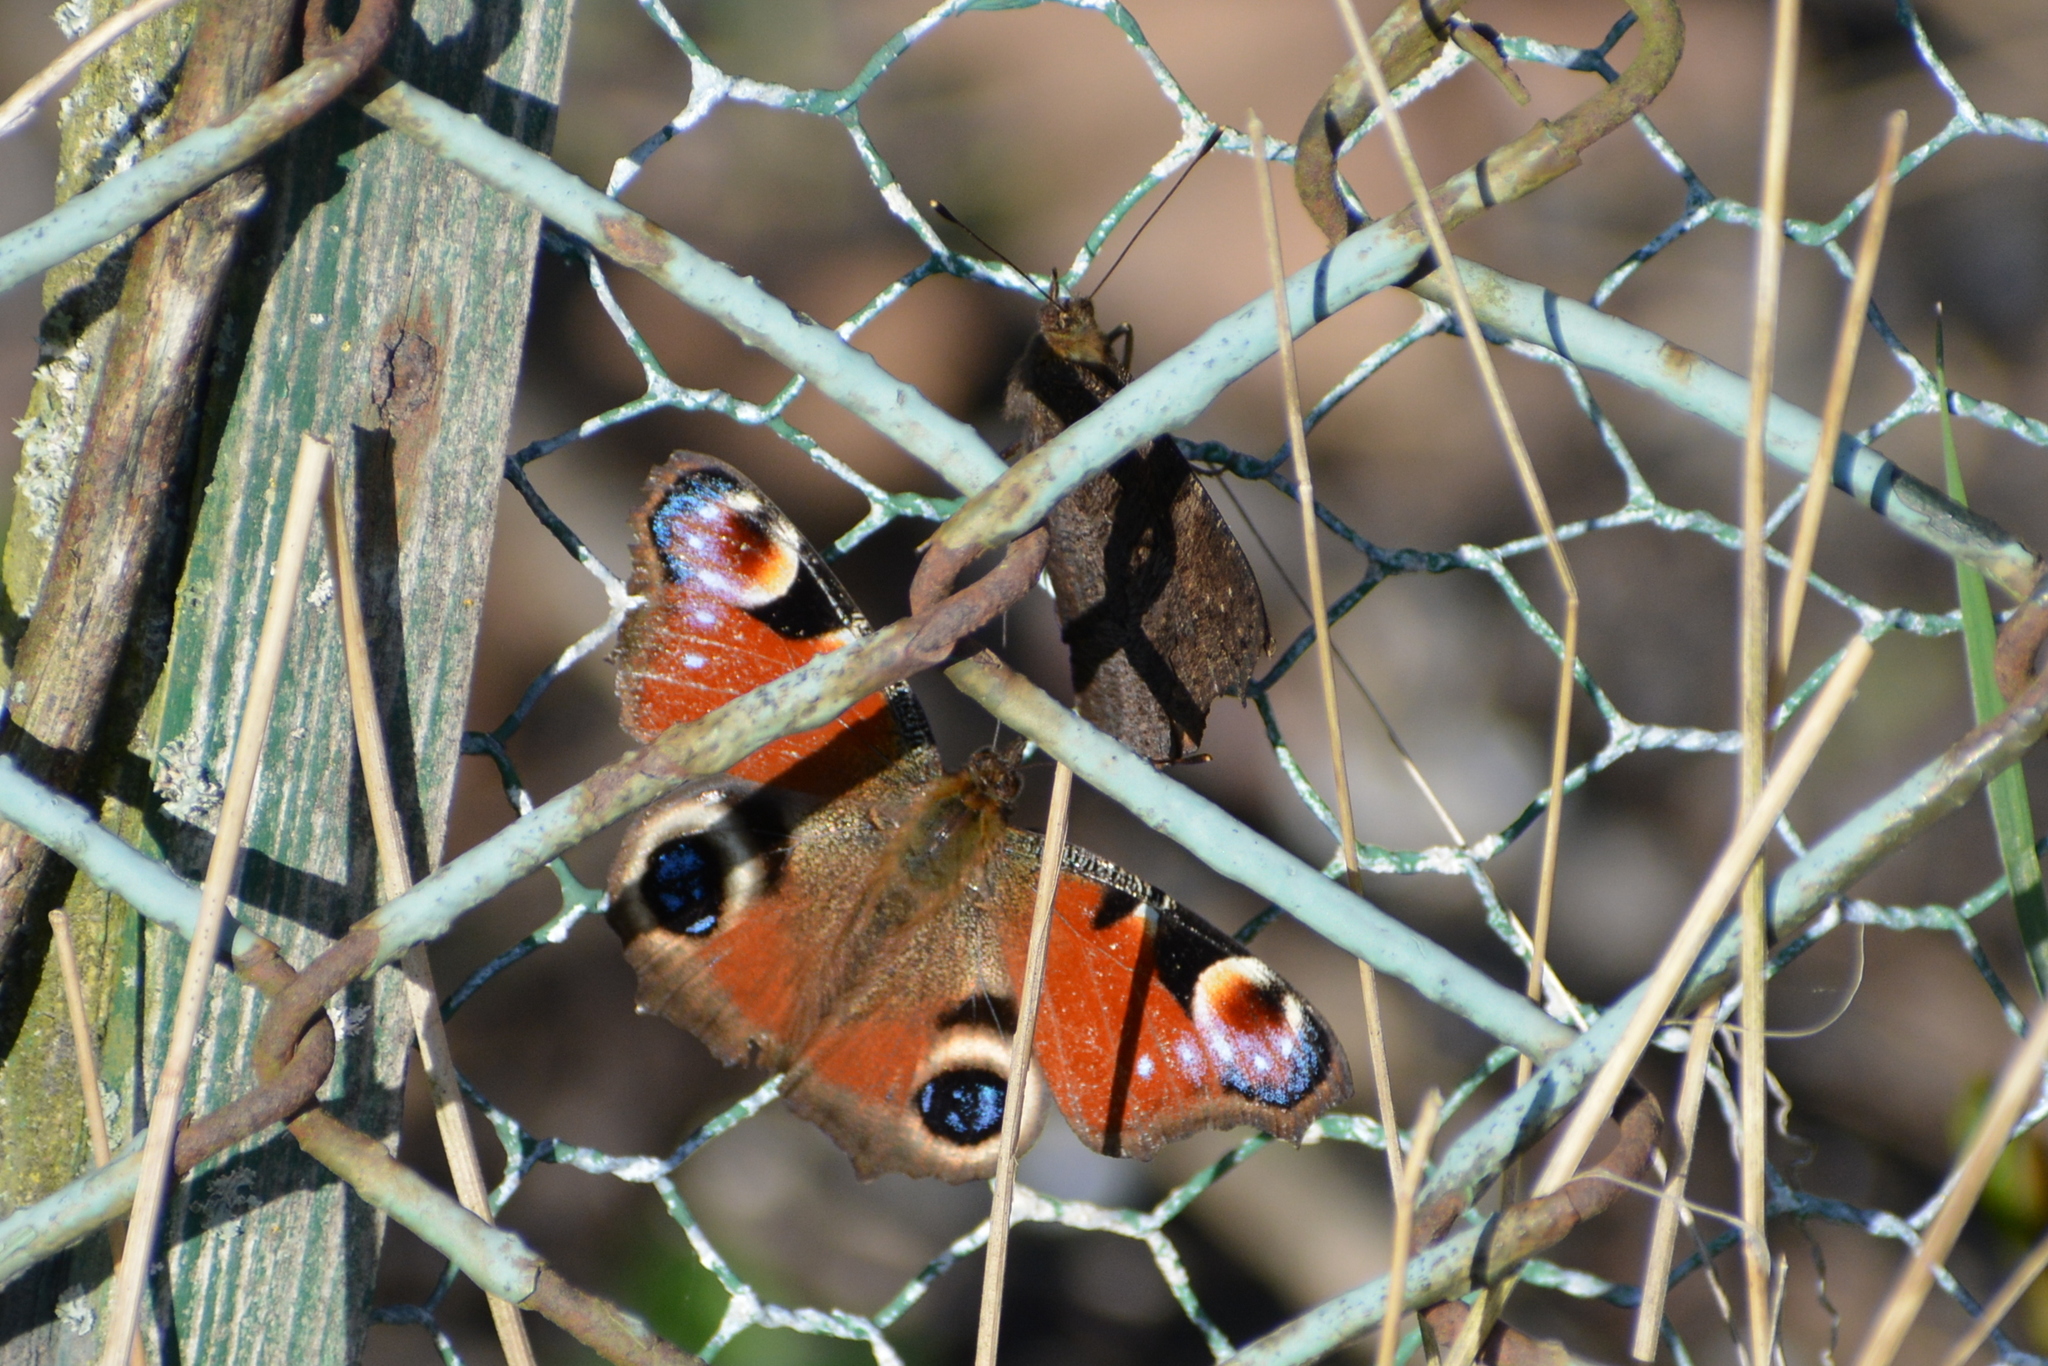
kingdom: Animalia
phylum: Arthropoda
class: Insecta
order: Lepidoptera
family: Nymphalidae
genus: Aglais
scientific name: Aglais io
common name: Peacock
